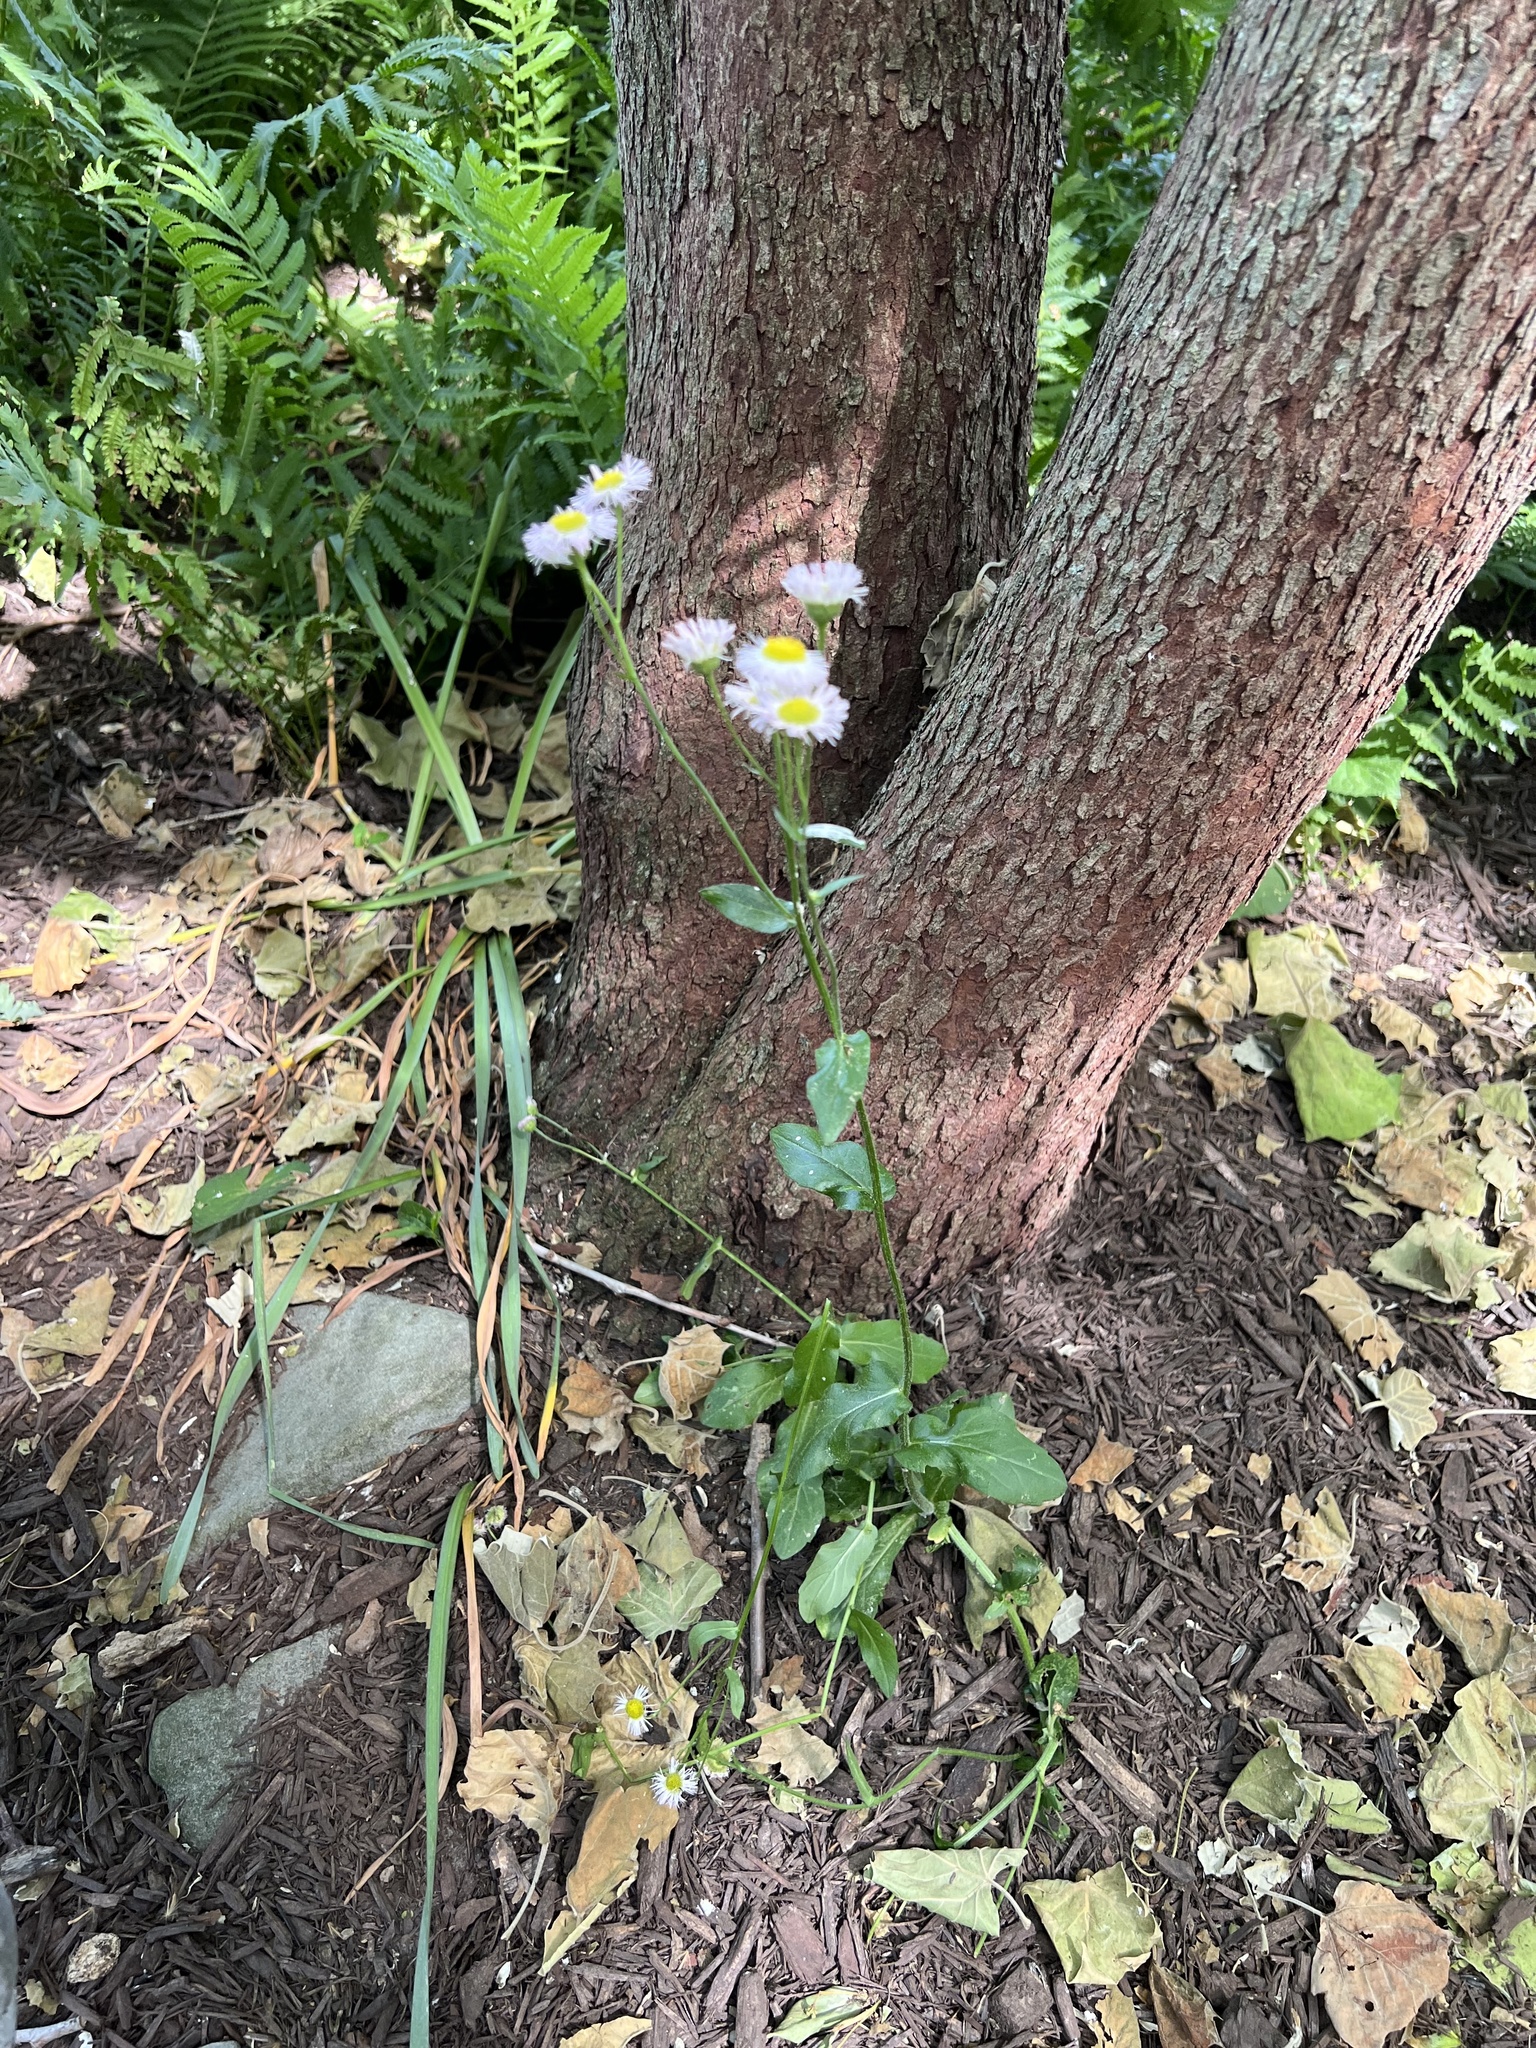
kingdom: Plantae
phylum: Tracheophyta
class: Magnoliopsida
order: Asterales
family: Asteraceae
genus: Erigeron
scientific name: Erigeron philadelphicus
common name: Robin's-plantain
